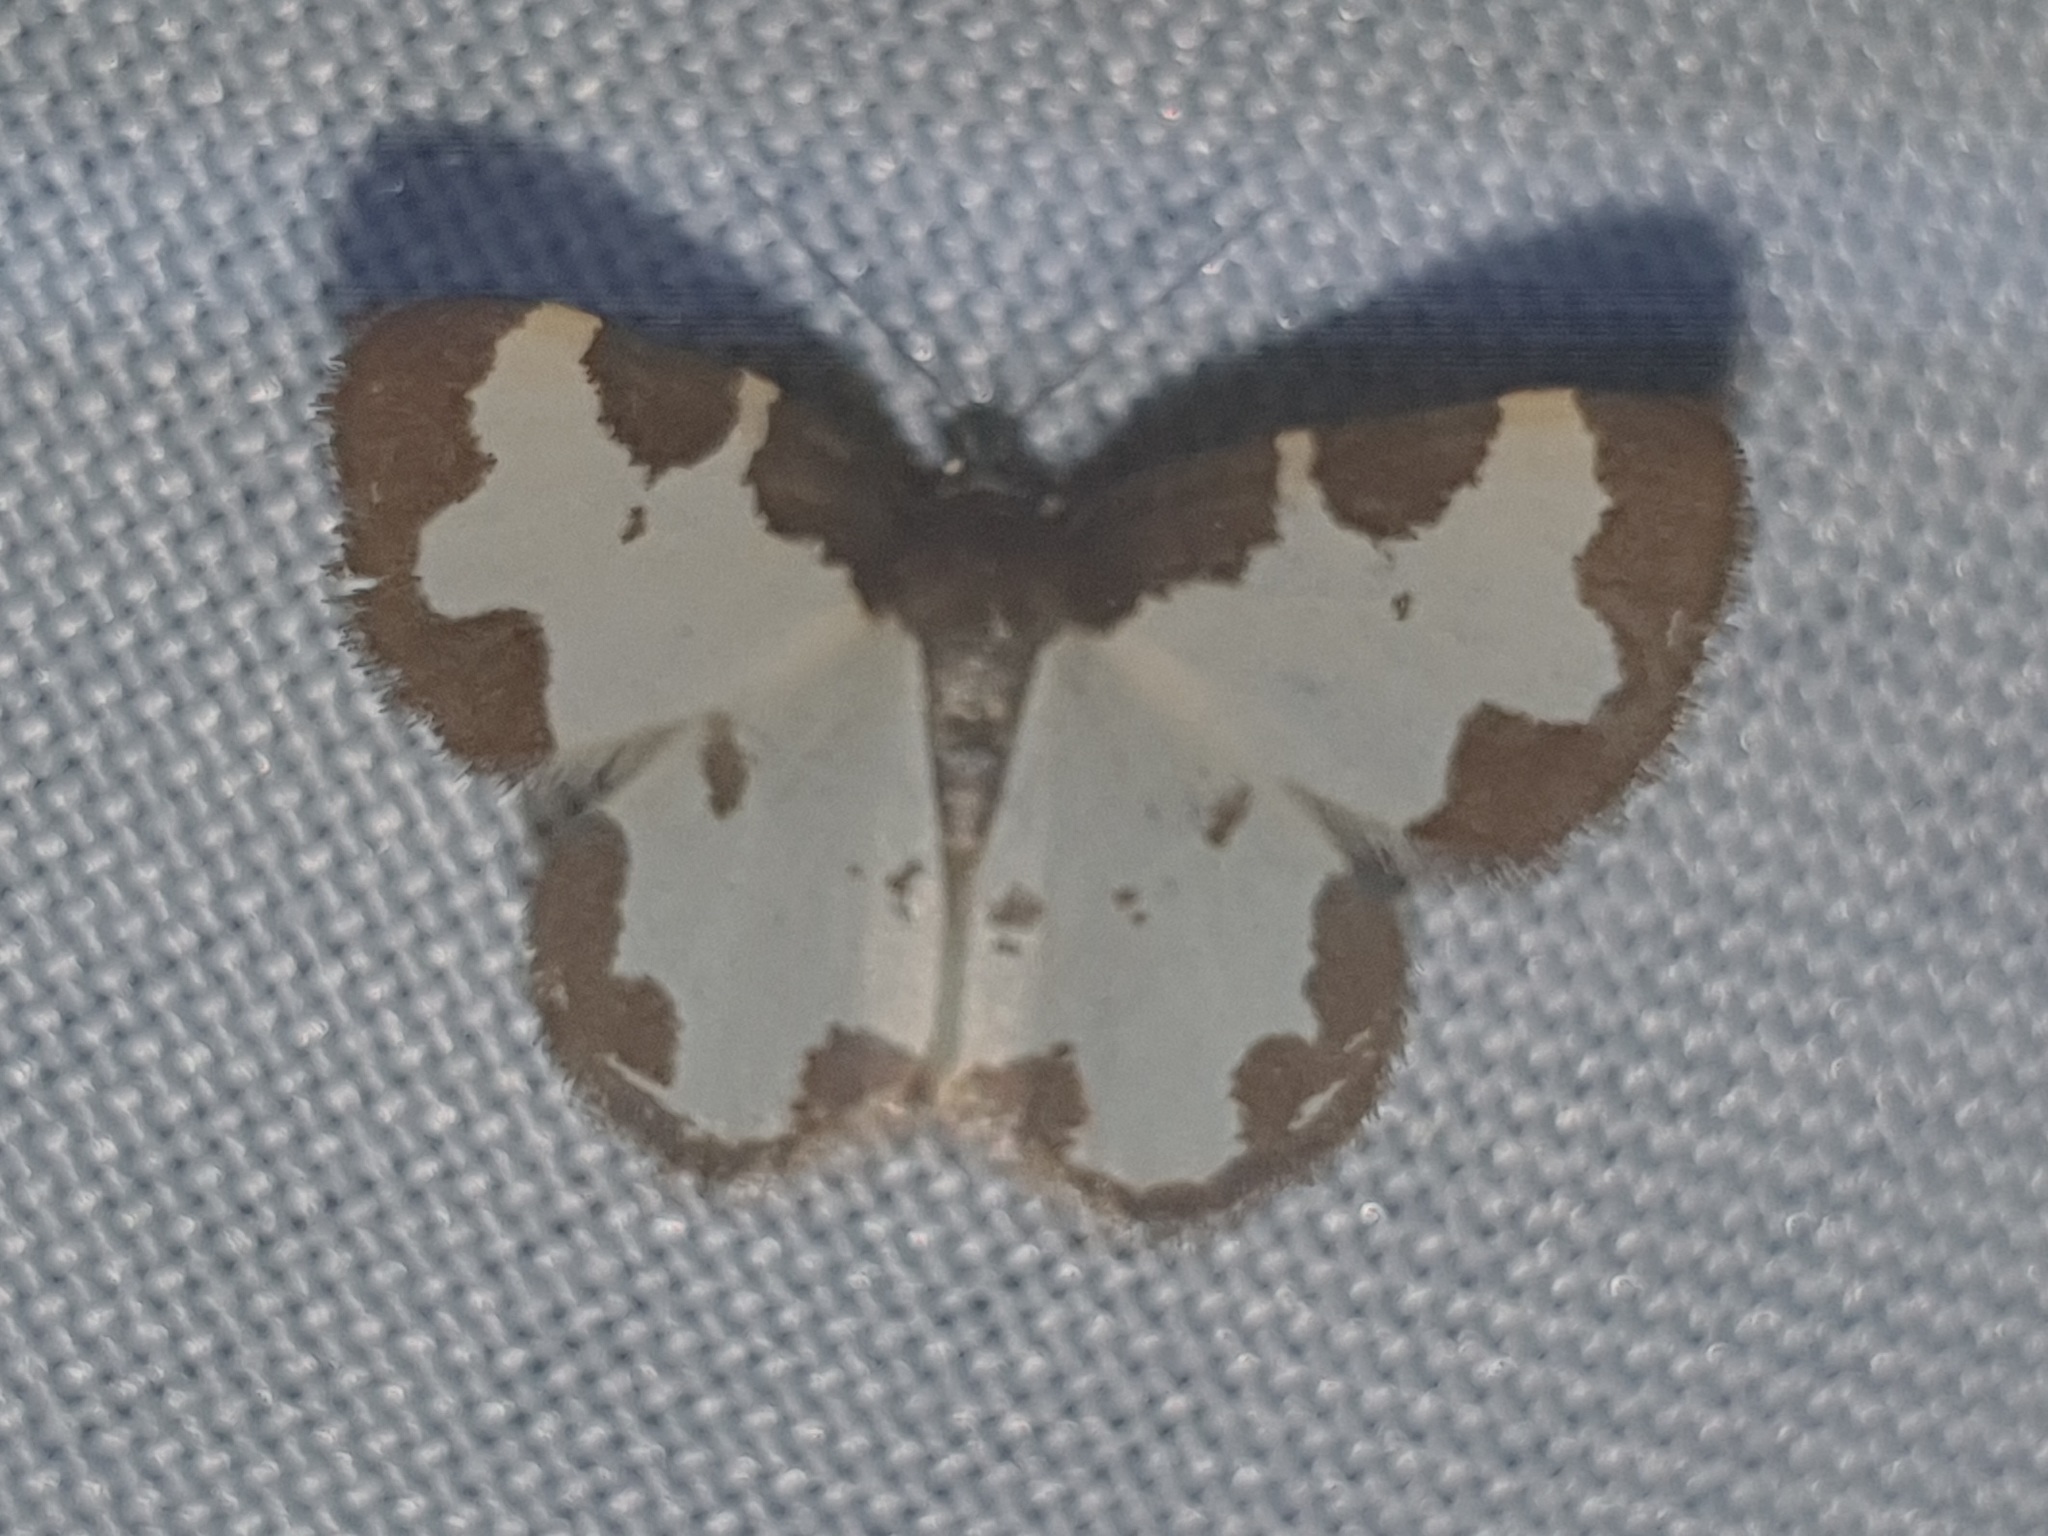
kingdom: Animalia
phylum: Arthropoda
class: Insecta
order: Lepidoptera
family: Geometridae
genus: Lomaspilis
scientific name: Lomaspilis marginata
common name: Clouded border
